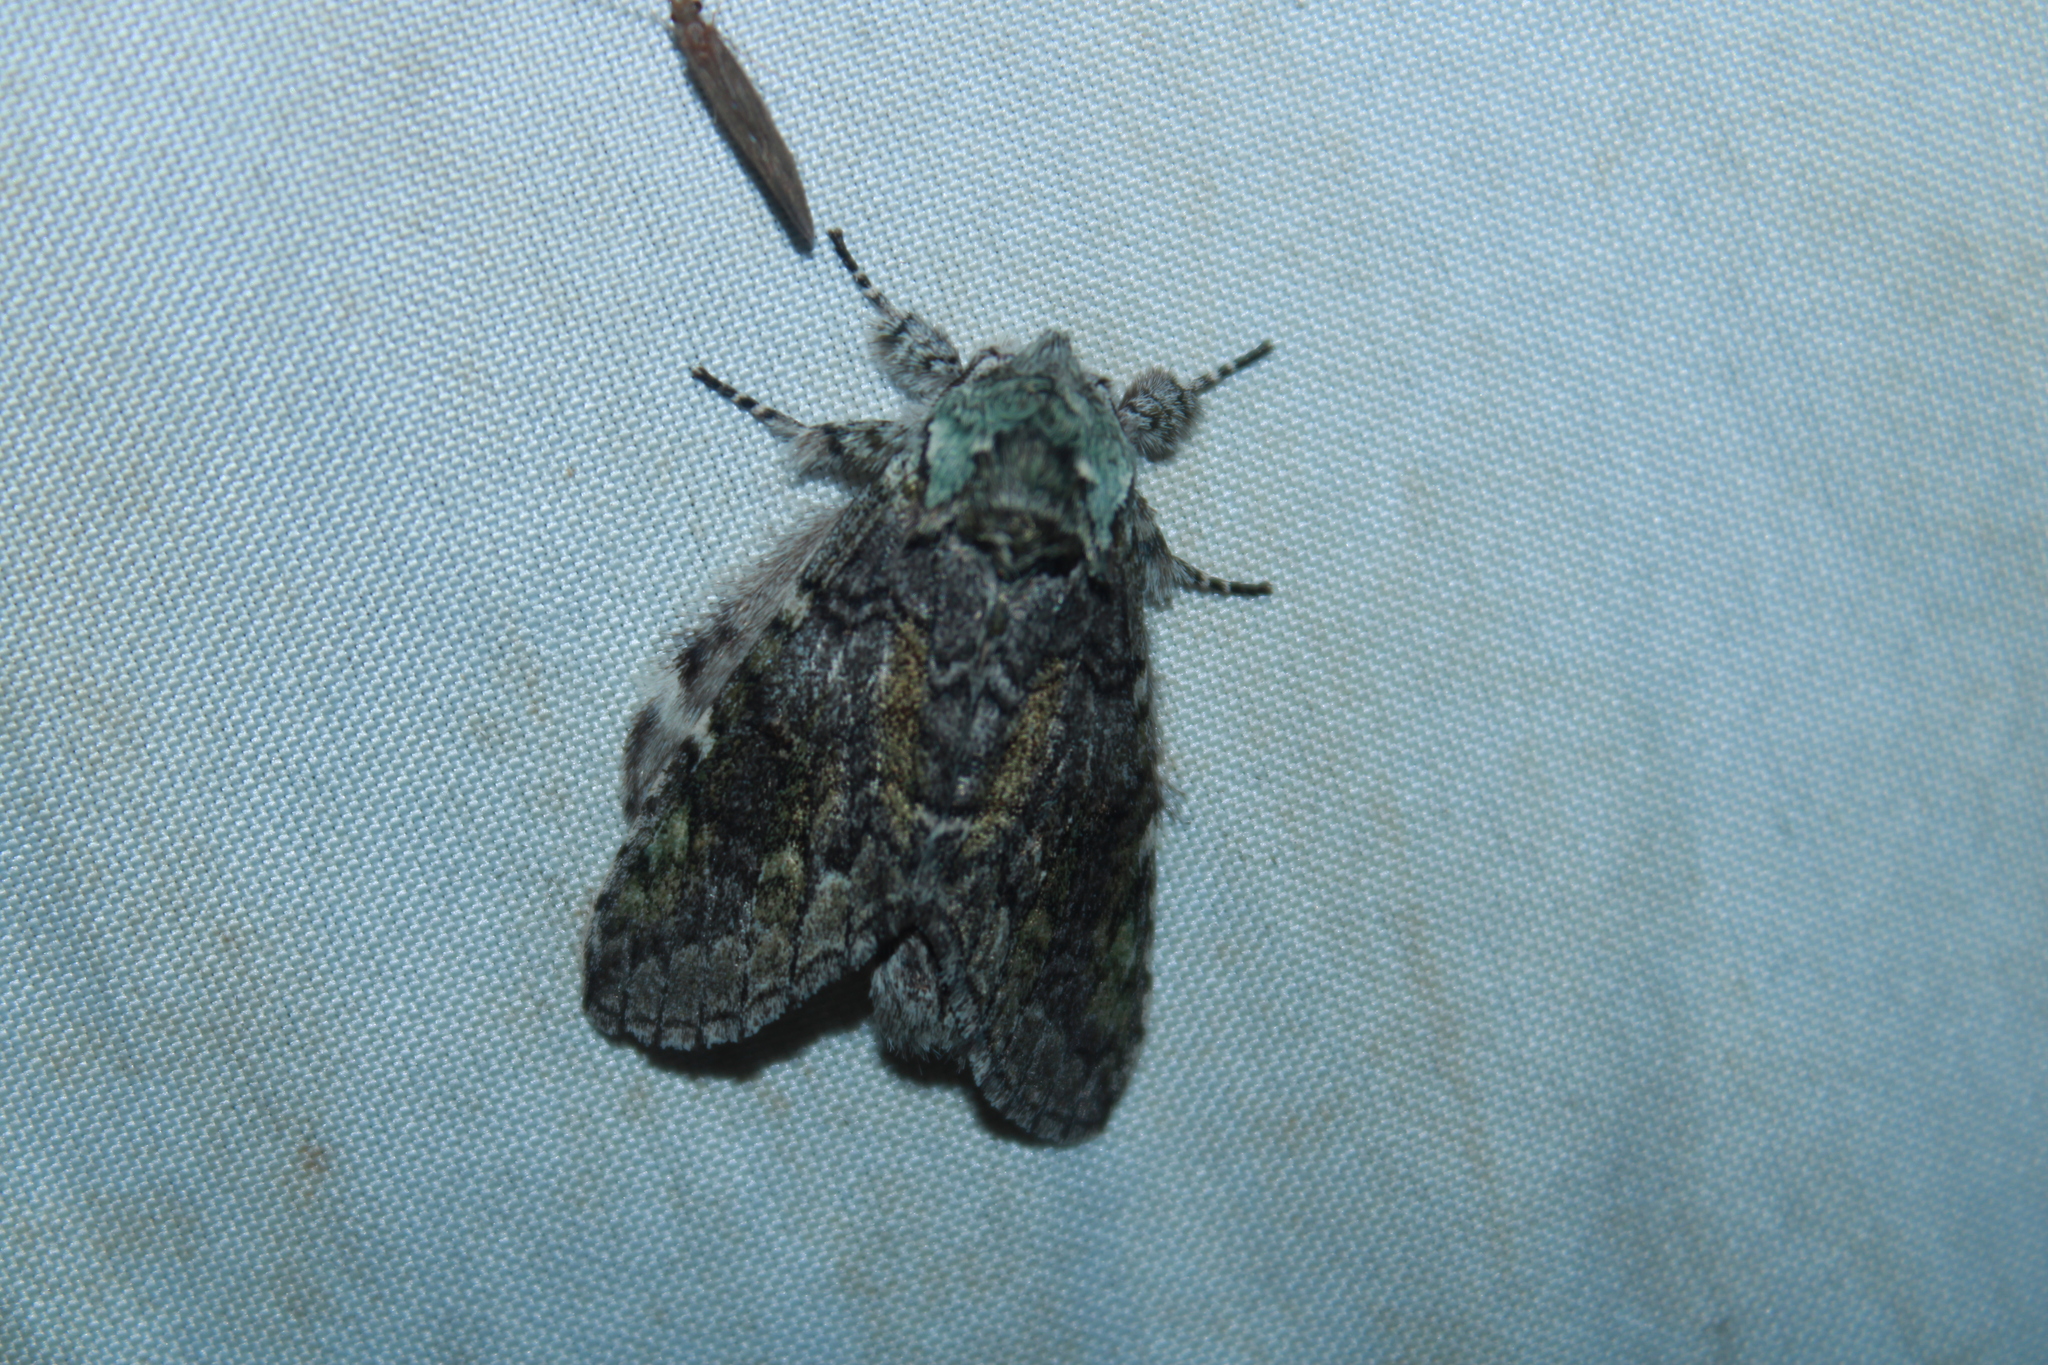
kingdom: Animalia
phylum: Arthropoda
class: Insecta
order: Lepidoptera
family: Notodontidae
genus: Macrurocampa
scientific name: Macrurocampa marthesia
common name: Mottled prominent
